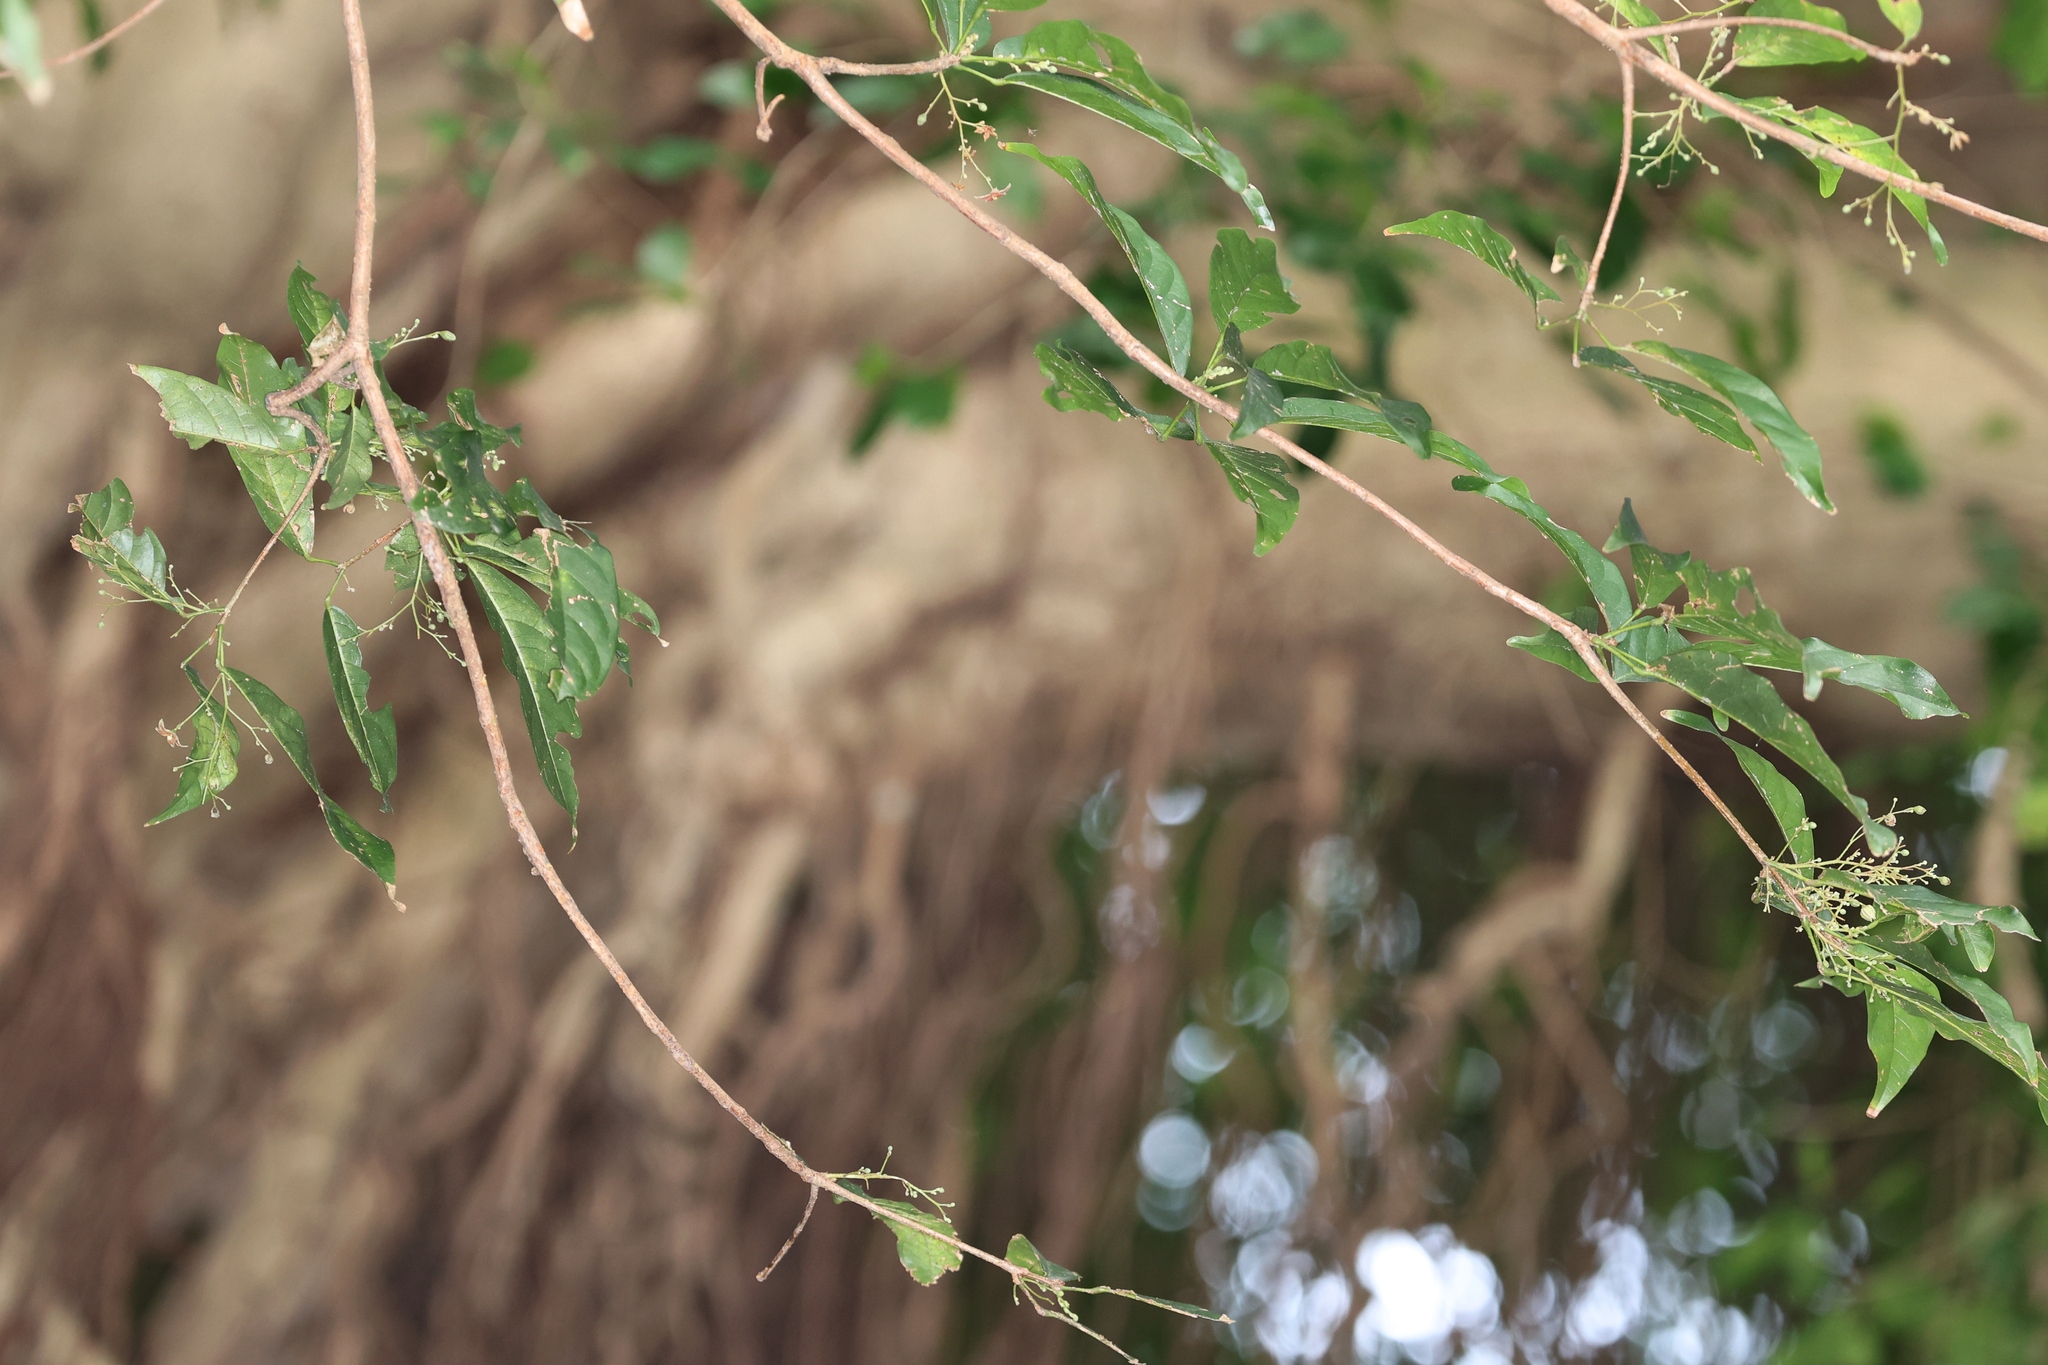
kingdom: Plantae
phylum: Tracheophyta
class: Magnoliopsida
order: Malvales
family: Malvaceae
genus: Sterculia
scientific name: Sterculia lanceolata
